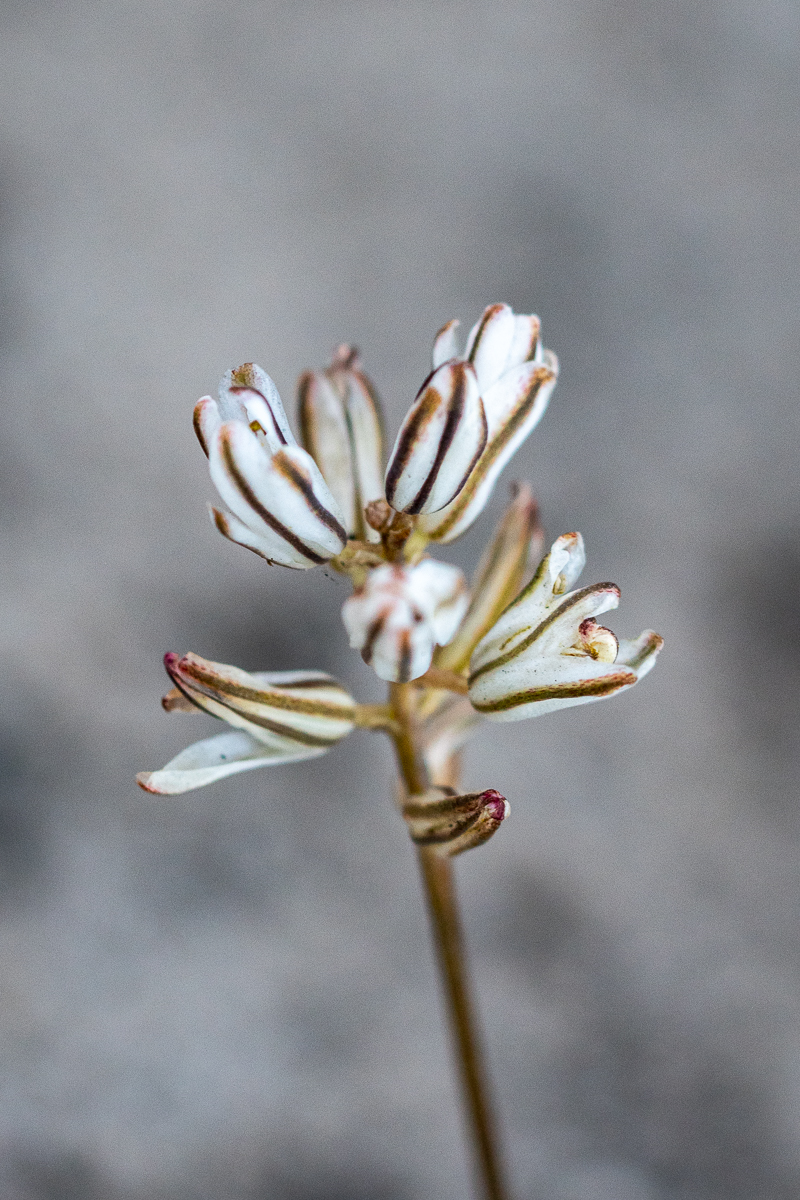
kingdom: Plantae
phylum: Tracheophyta
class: Liliopsida
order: Asparagales
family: Asparagaceae
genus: Eriospermum
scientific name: Eriospermum dielsianum
